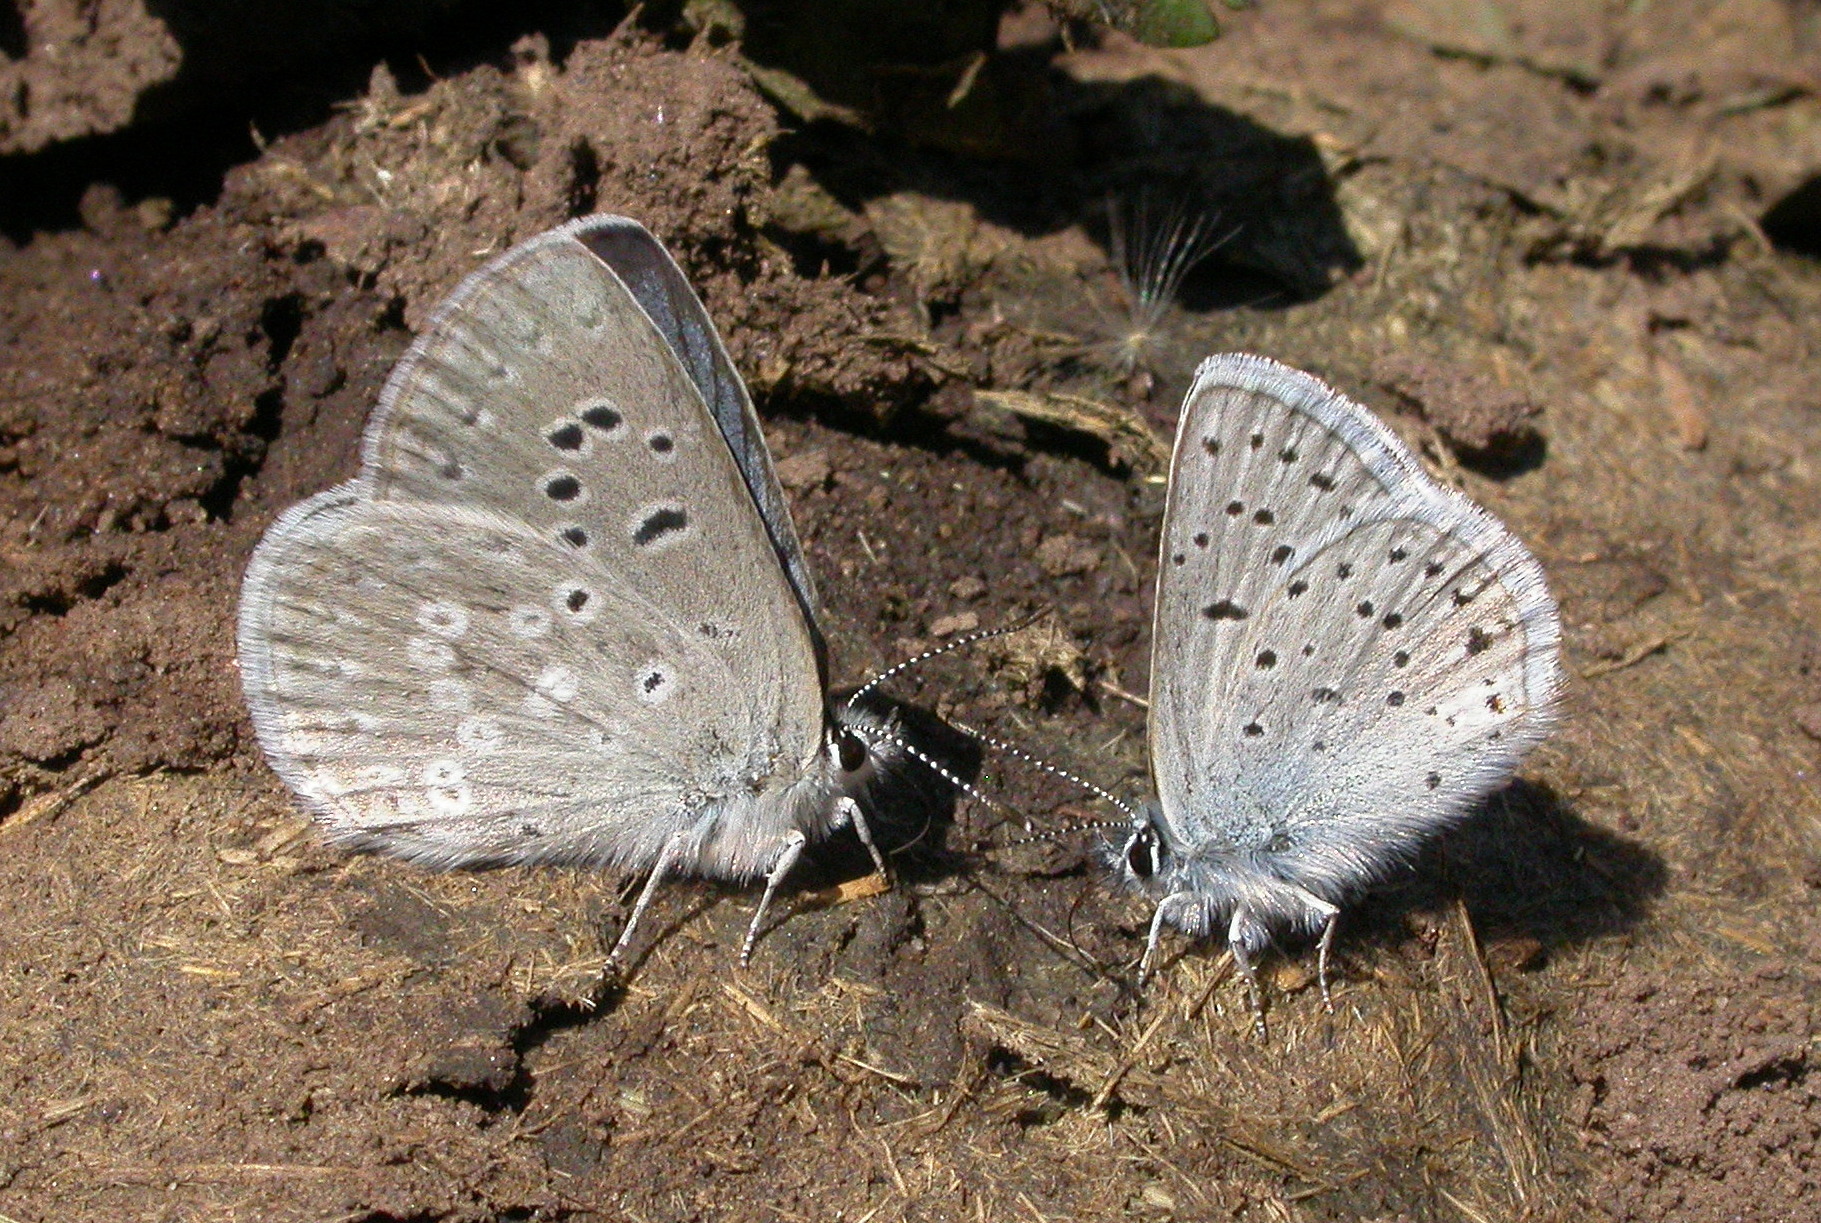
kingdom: Animalia
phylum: Arthropoda
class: Insecta
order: Lepidoptera
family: Lycaenidae
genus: Icaricia
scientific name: Icaricia icarioides
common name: Boisduval's blue
